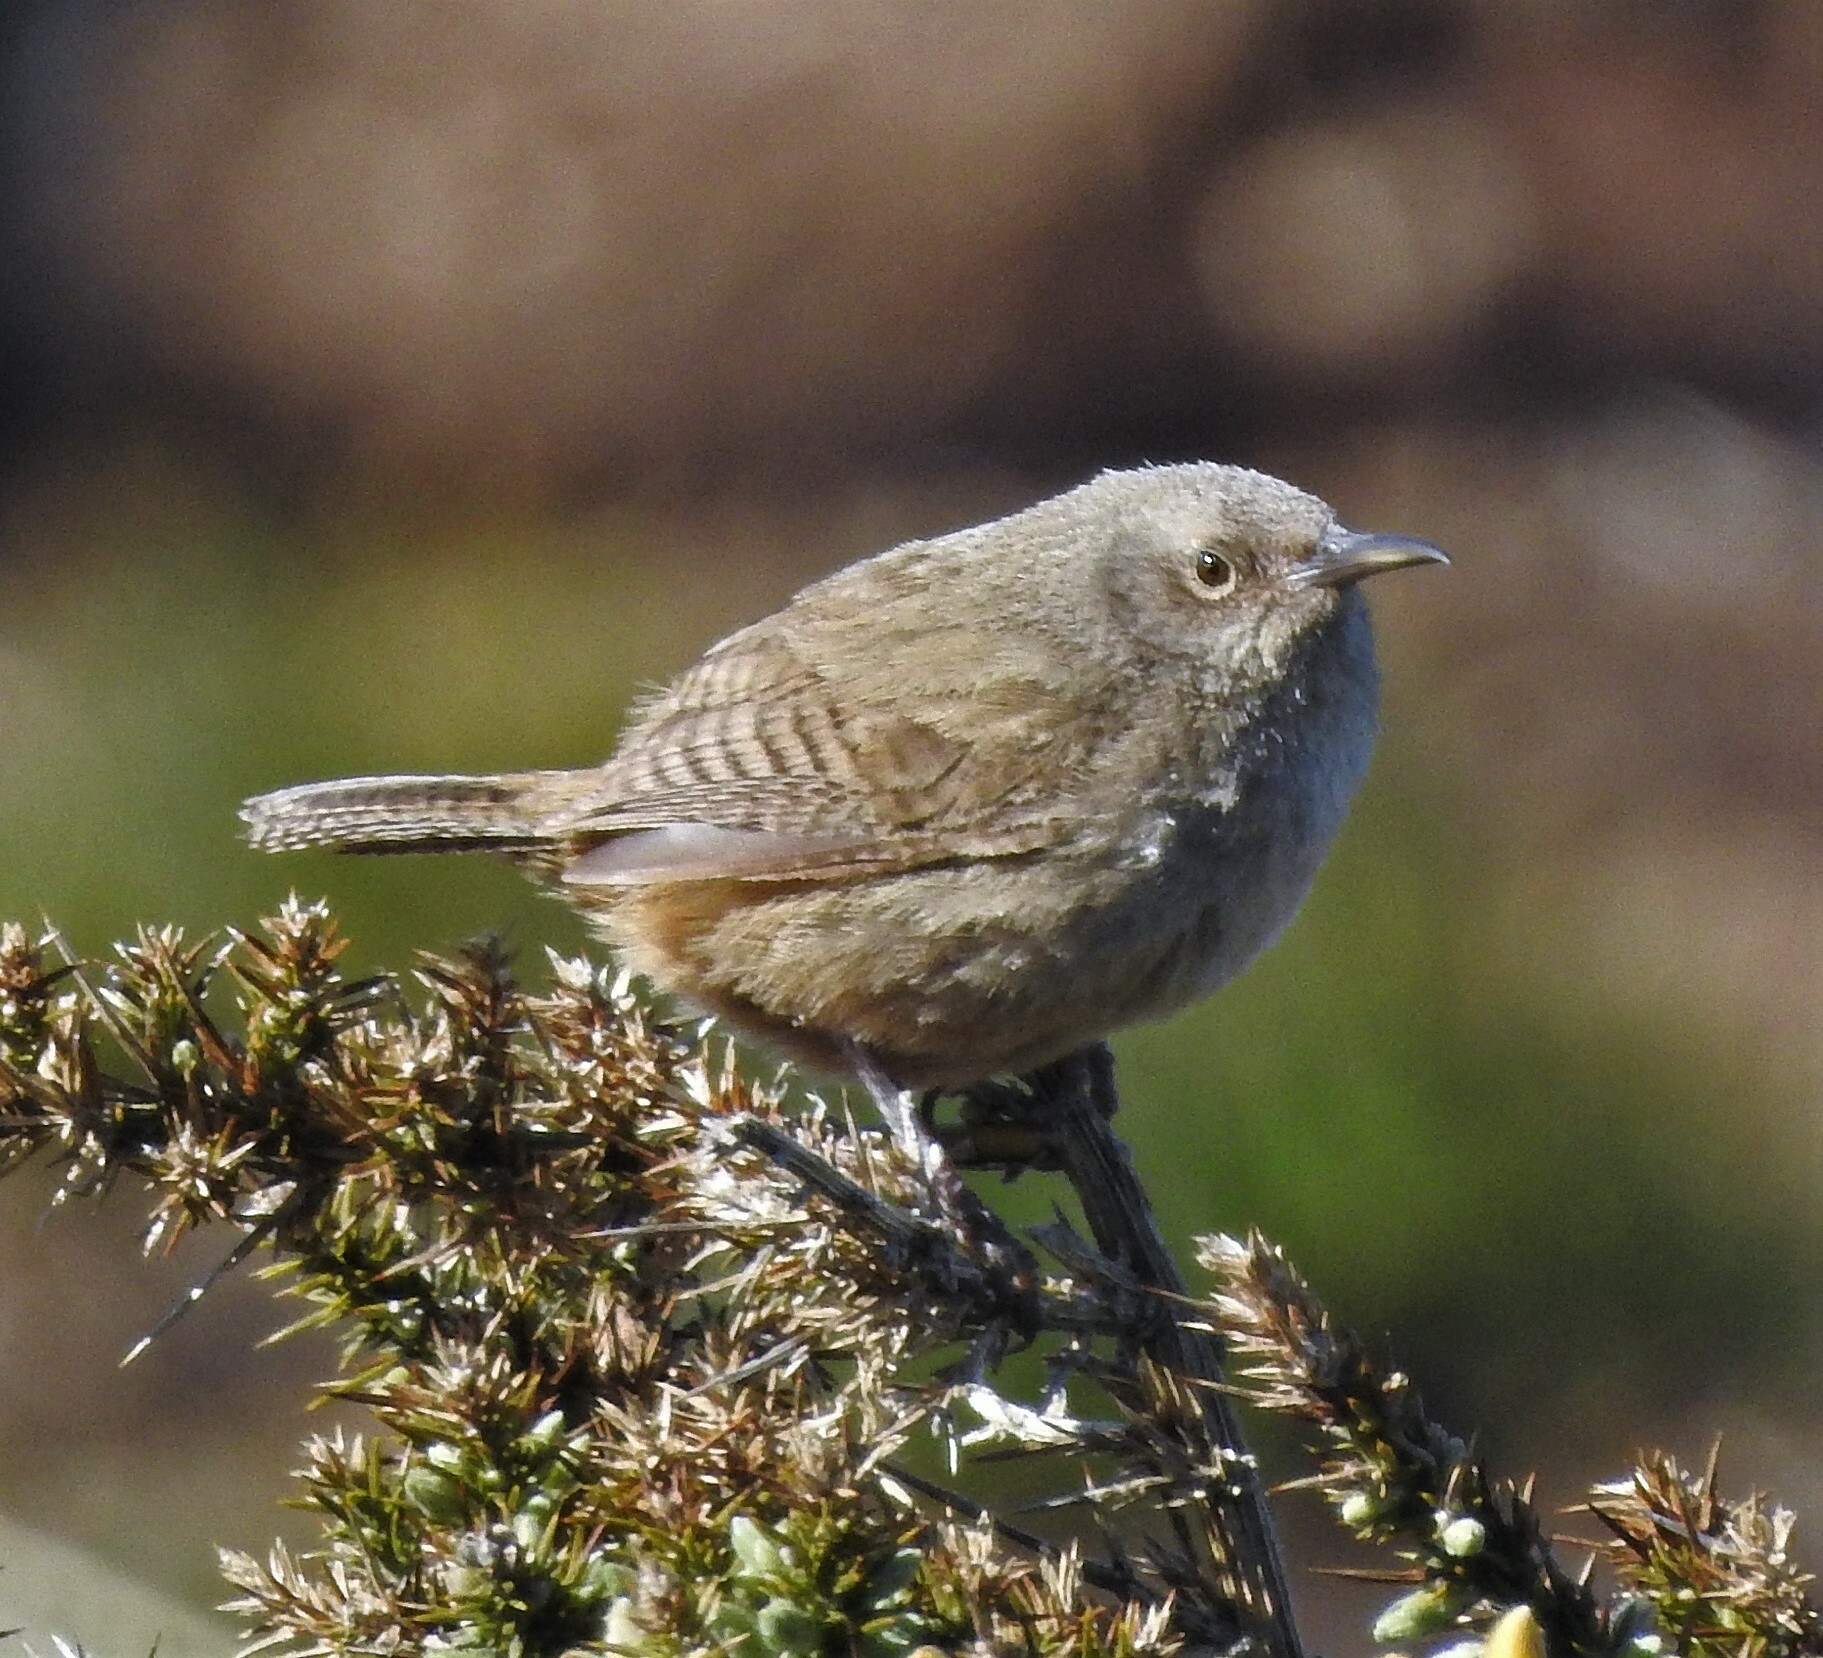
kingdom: Animalia
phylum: Chordata
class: Aves
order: Passeriformes
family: Troglodytidae
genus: Troglodytes
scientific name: Troglodytes cobbi
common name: Cobb's wren
